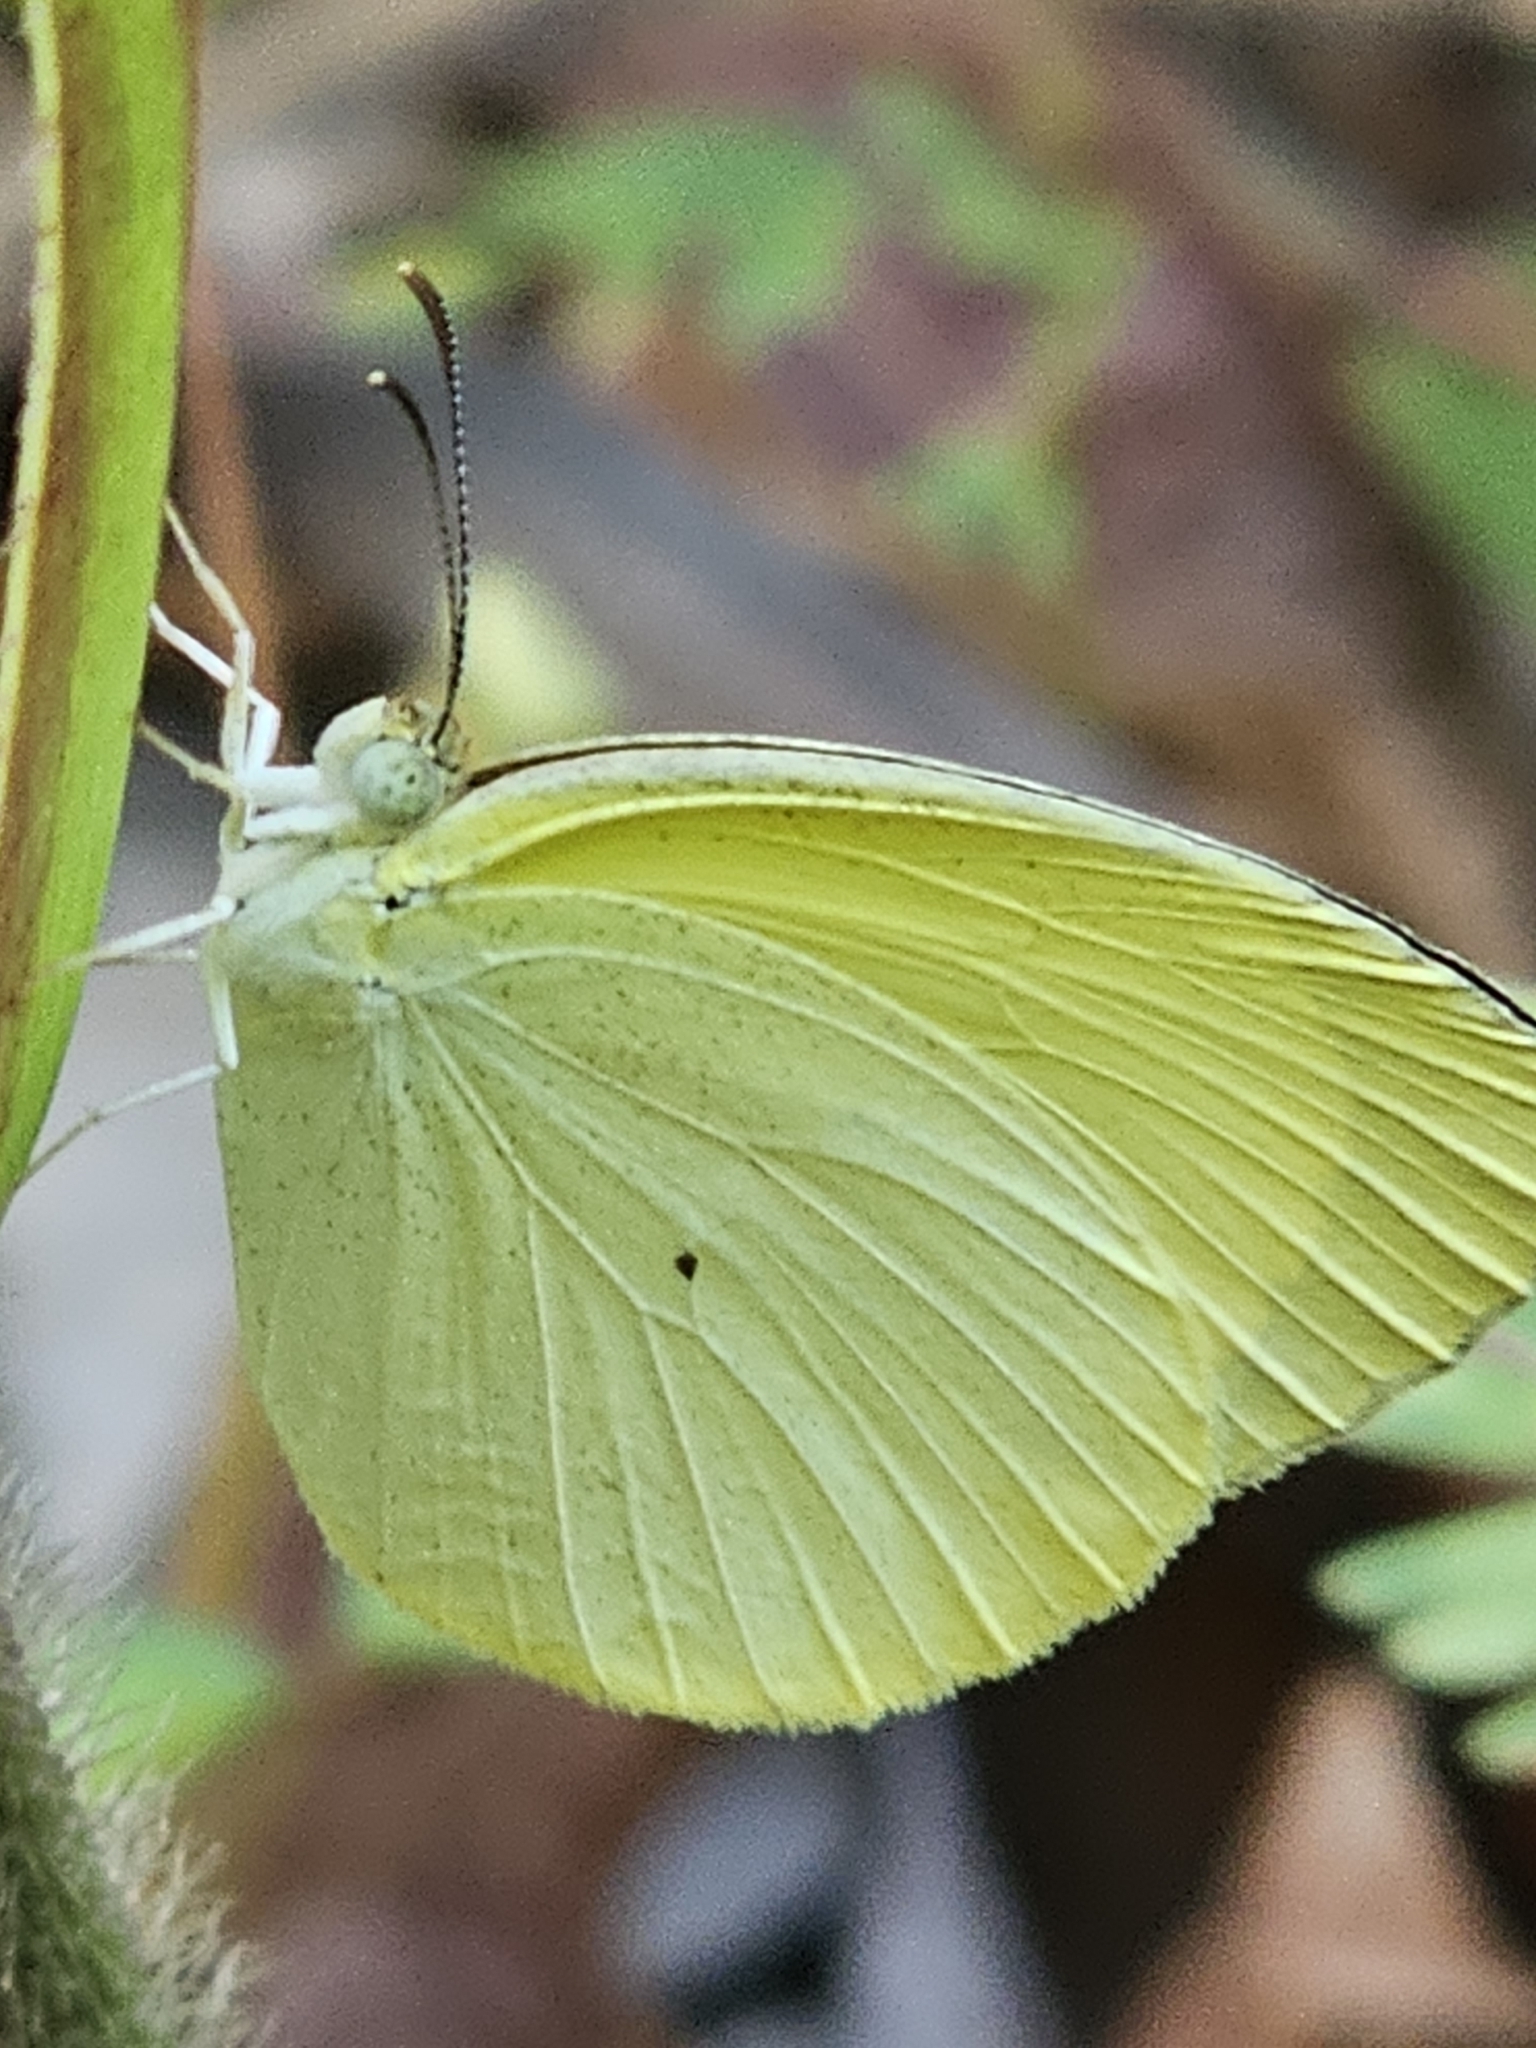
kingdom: Animalia
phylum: Arthropoda
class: Insecta
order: Lepidoptera
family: Pieridae
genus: Pyrisitia
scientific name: Pyrisitia venusta
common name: Pale yellow
